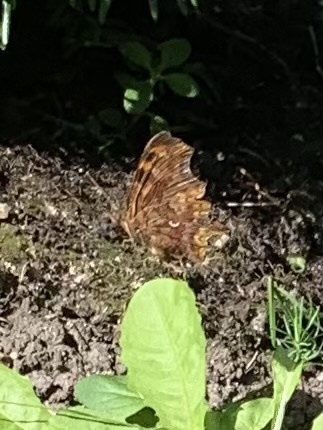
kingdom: Animalia
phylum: Arthropoda
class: Insecta
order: Lepidoptera
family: Nymphalidae
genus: Polygonia
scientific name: Polygonia c-album
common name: Comma
